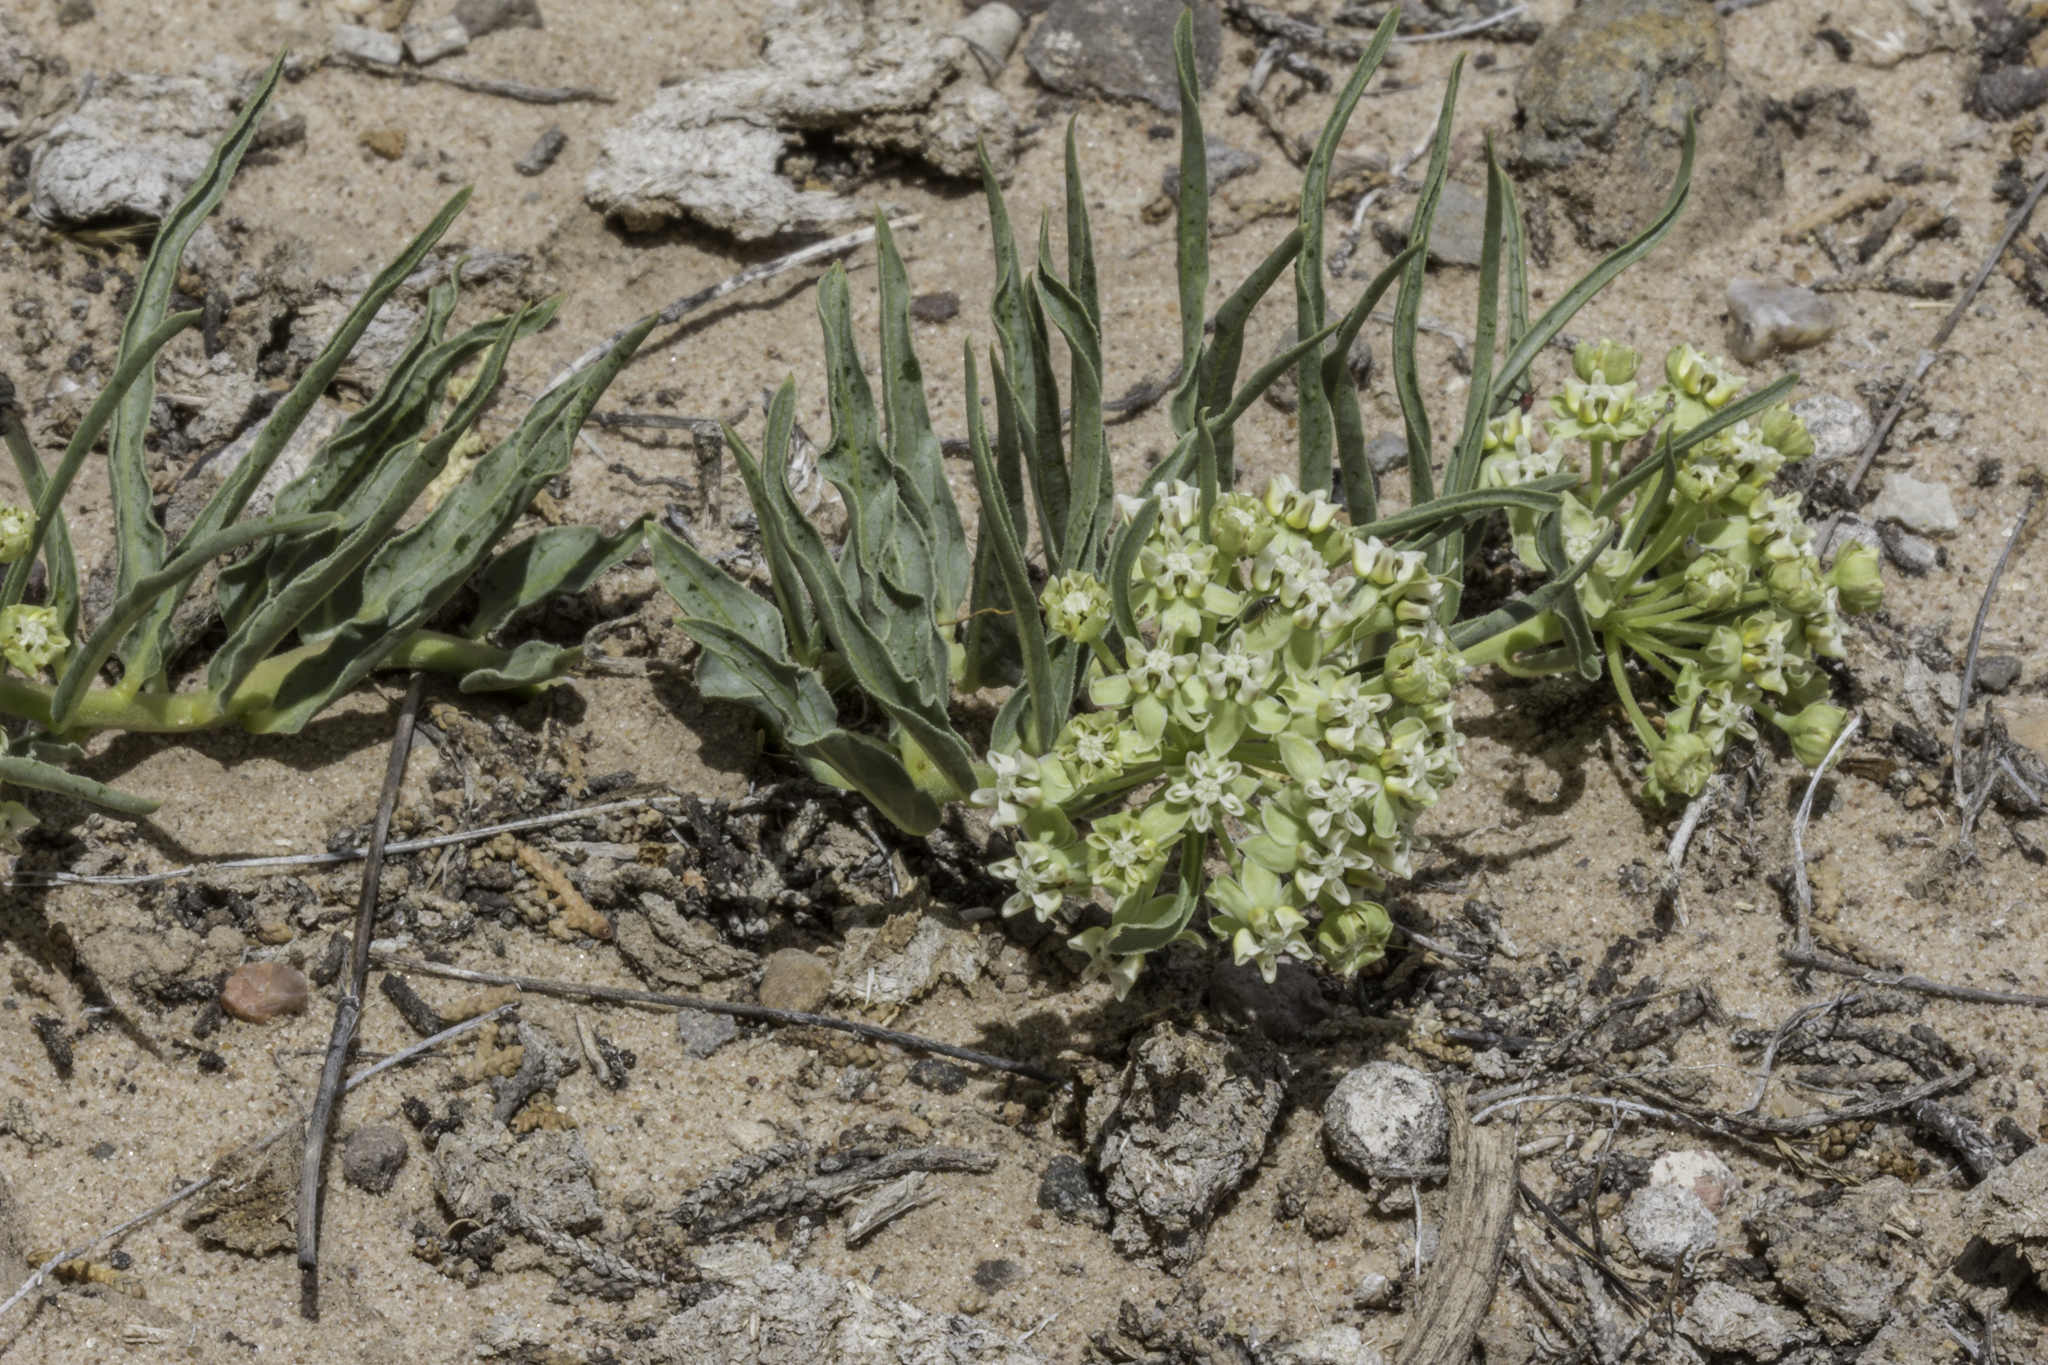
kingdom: Plantae
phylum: Tracheophyta
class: Magnoliopsida
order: Gentianales
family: Apocynaceae
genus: Asclepias
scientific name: Asclepias involucrata
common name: Dwarf milkweed
